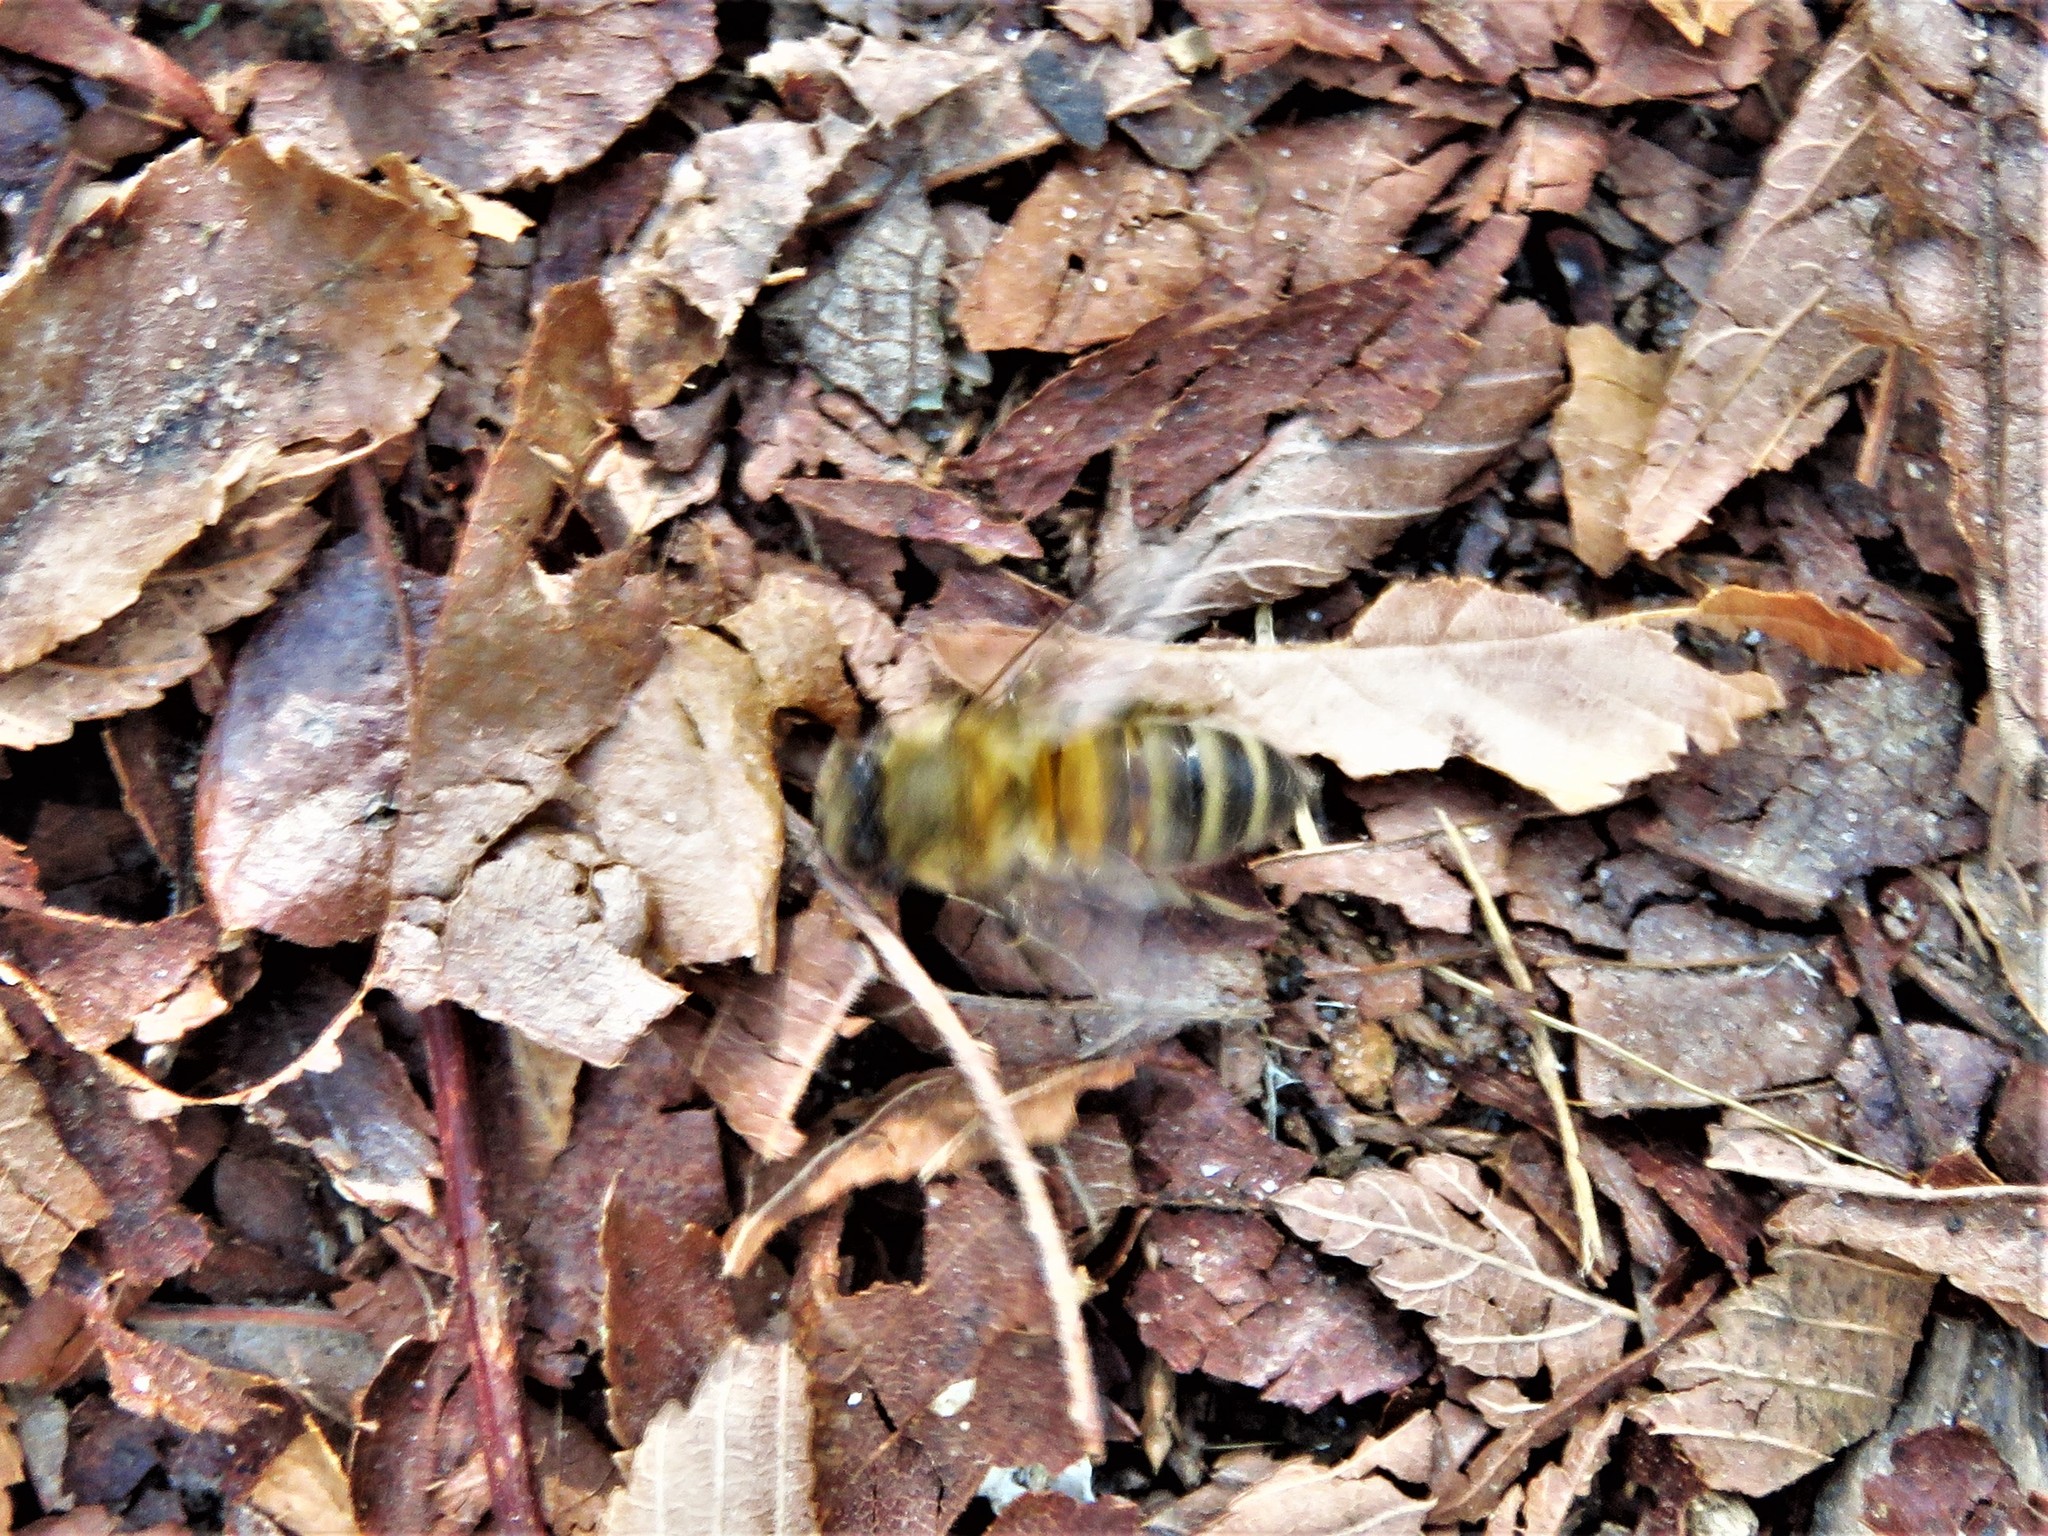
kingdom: Animalia
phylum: Arthropoda
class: Insecta
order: Hymenoptera
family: Apidae
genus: Apis
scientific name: Apis mellifera
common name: Honey bee
